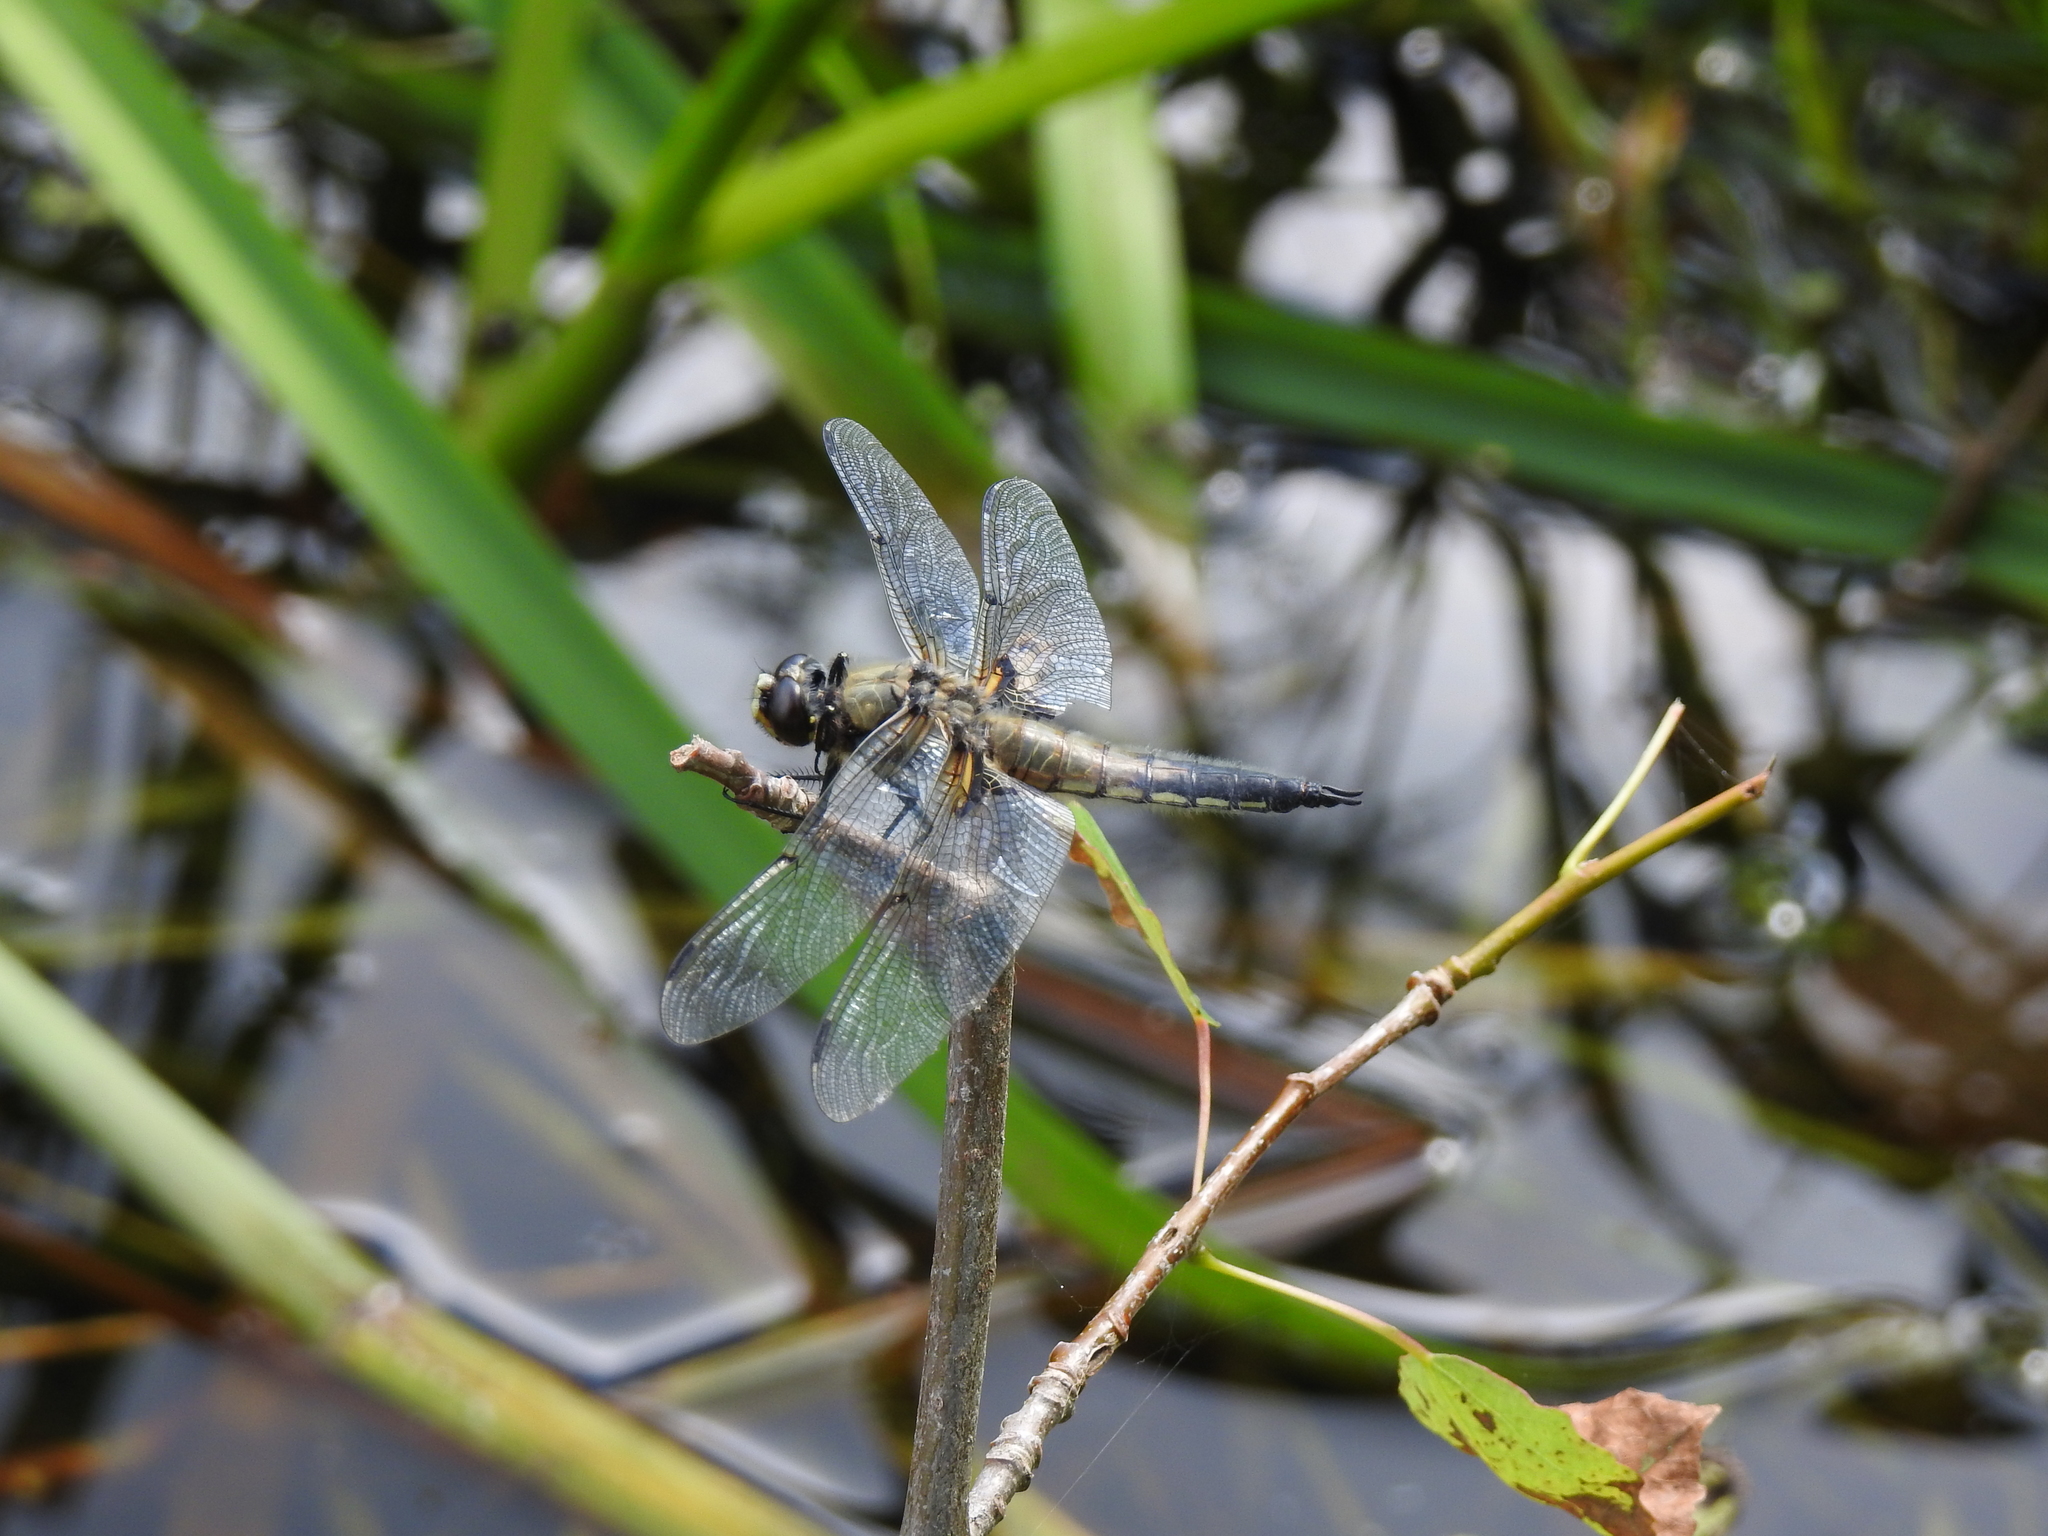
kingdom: Animalia
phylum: Arthropoda
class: Insecta
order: Odonata
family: Libellulidae
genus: Libellula
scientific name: Libellula quadrimaculata
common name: Four-spotted chaser
